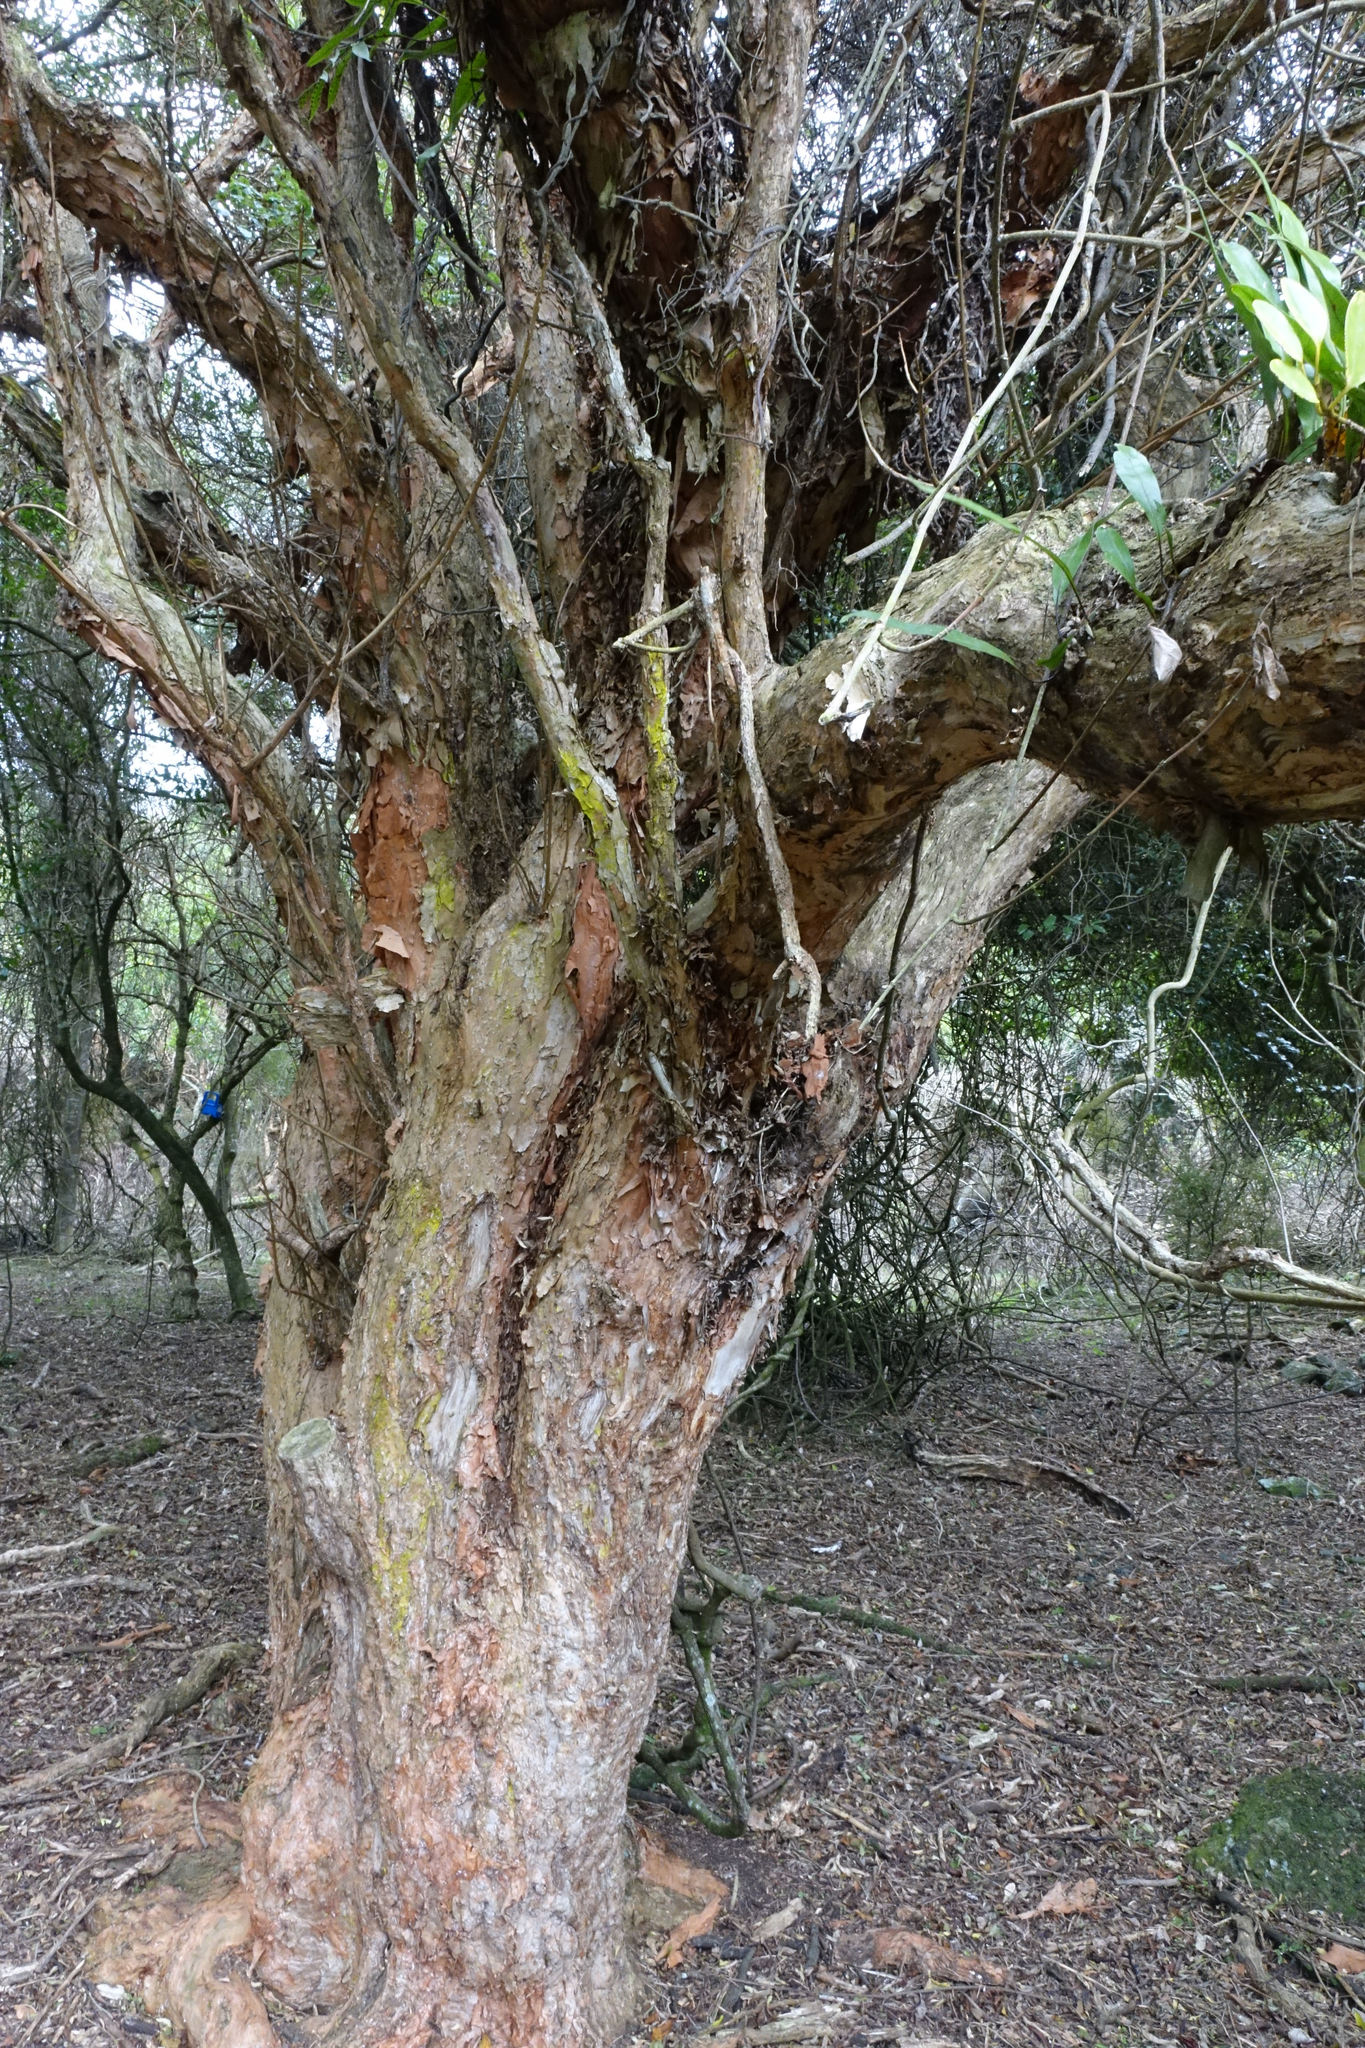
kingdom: Plantae
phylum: Tracheophyta
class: Magnoliopsida
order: Myrtales
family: Onagraceae
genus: Fuchsia
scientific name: Fuchsia excorticata
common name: Tree fuchsia
